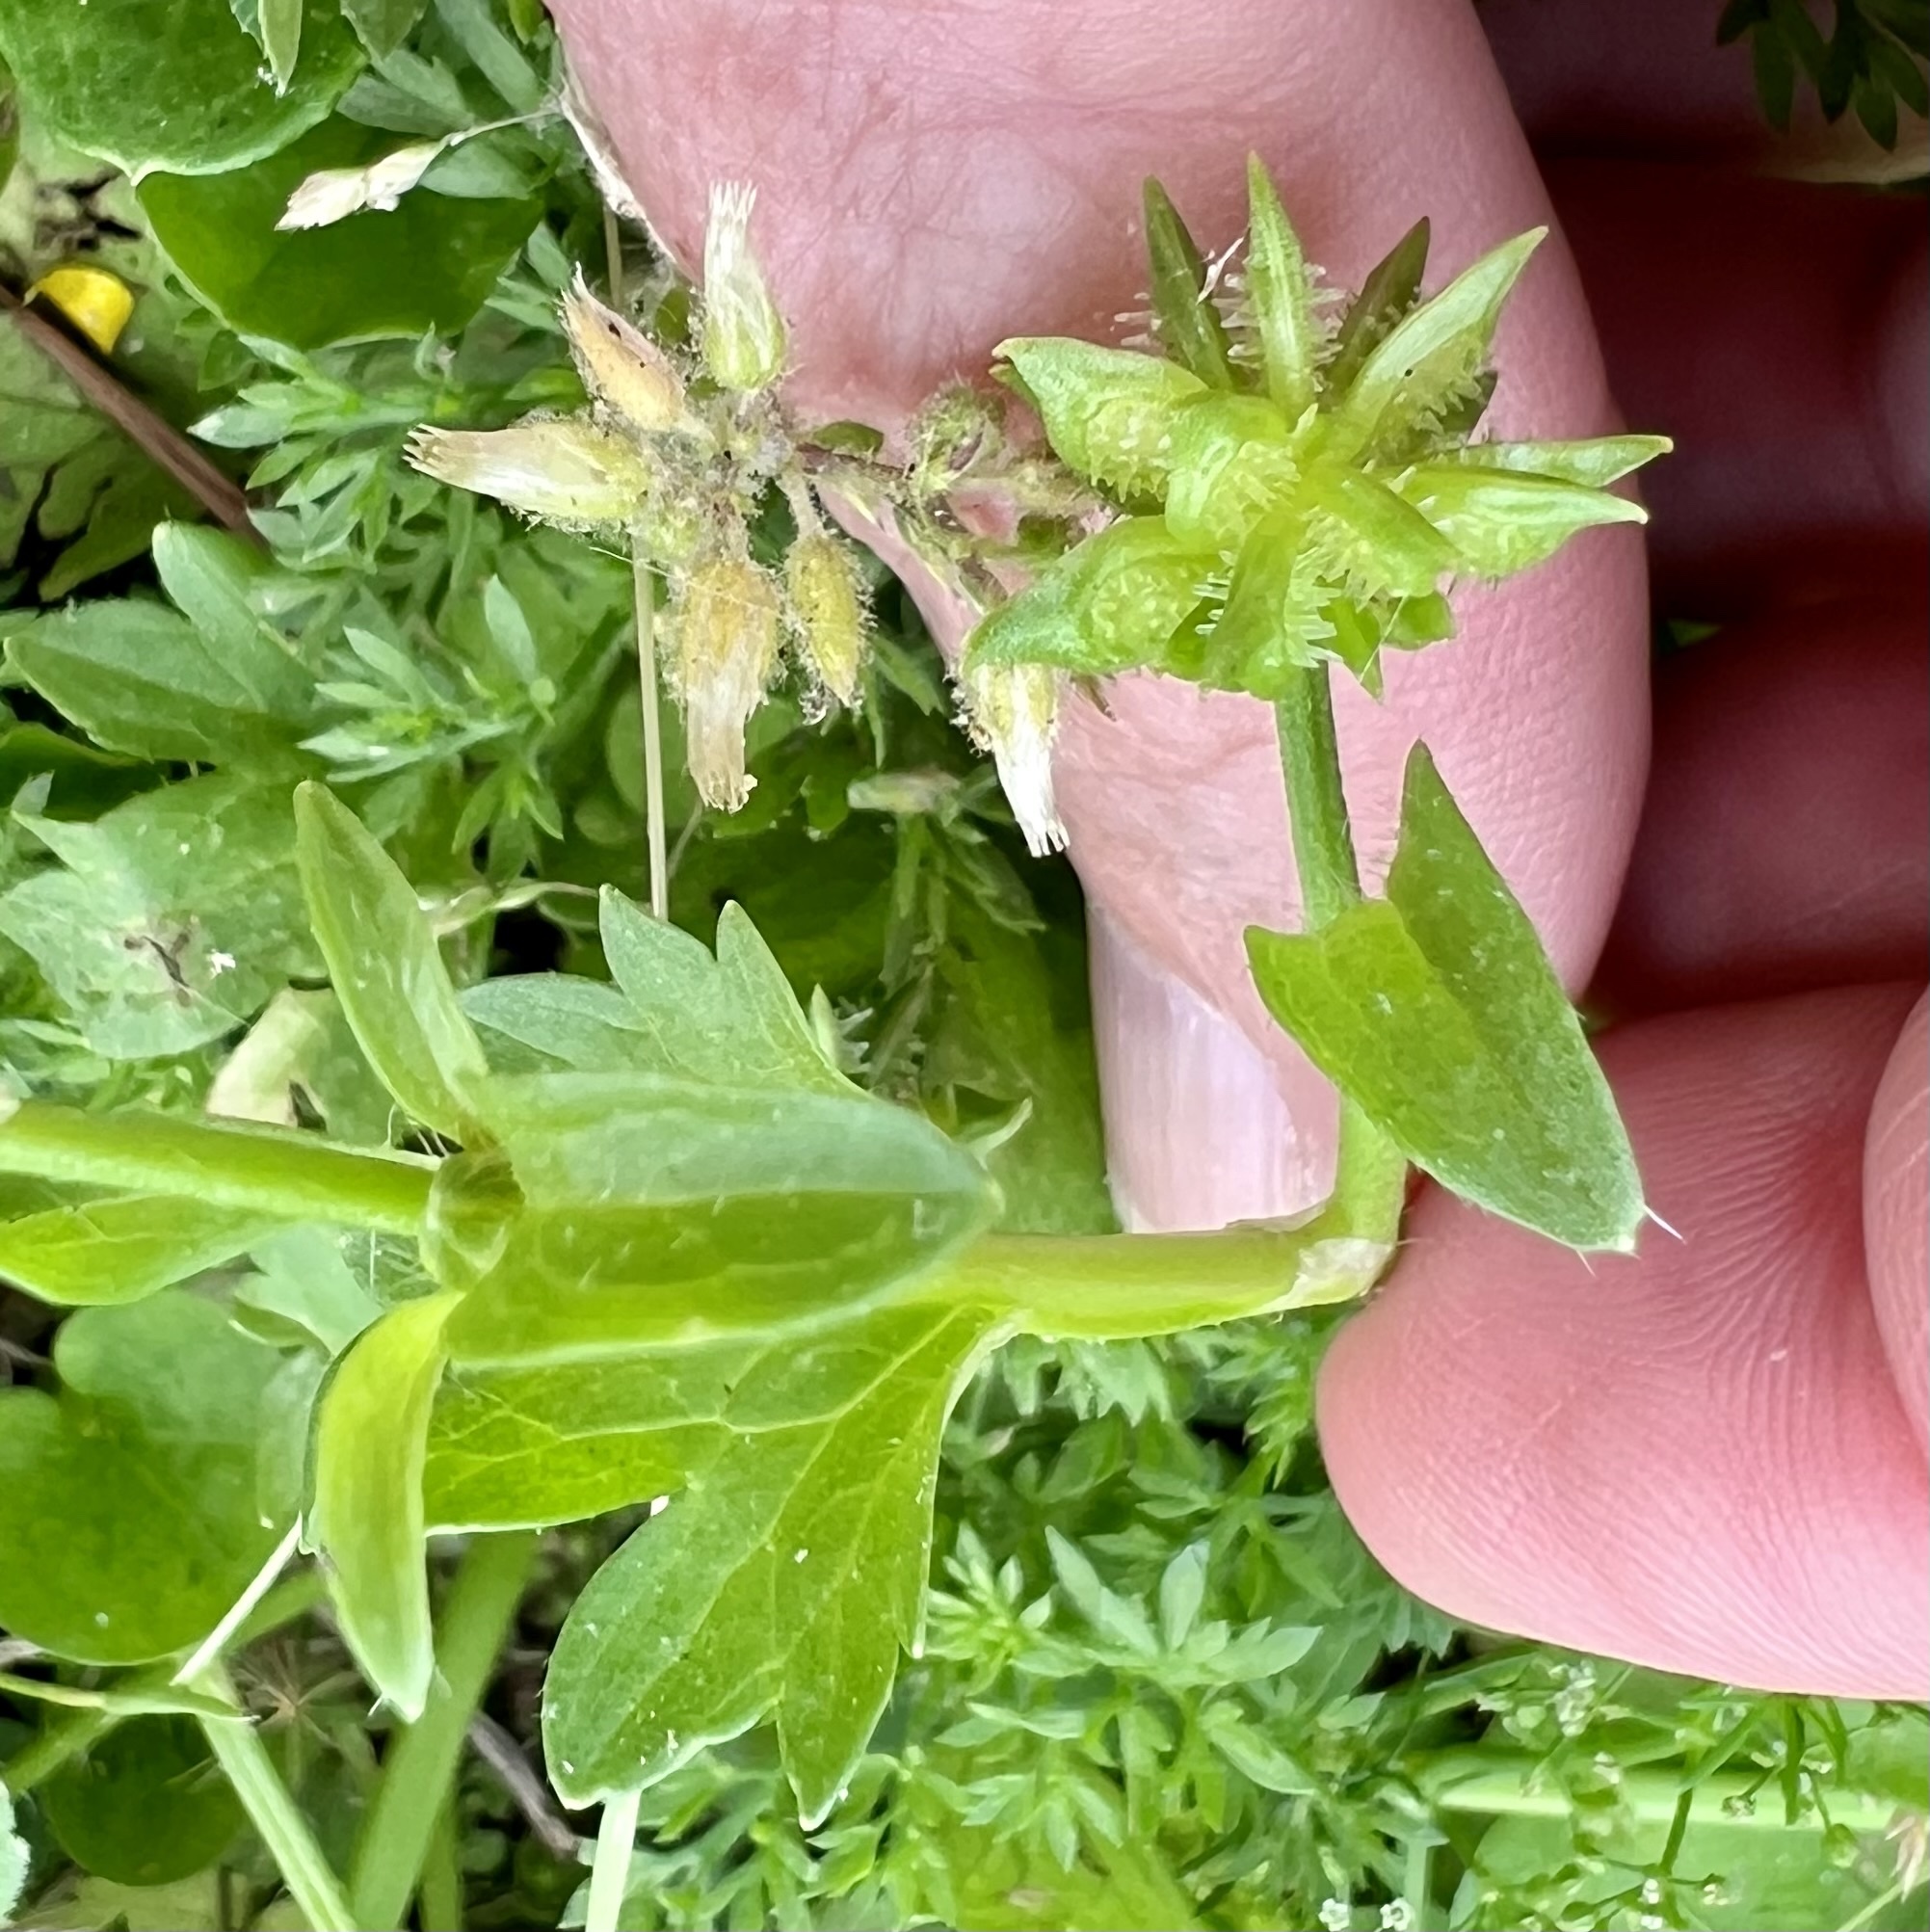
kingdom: Plantae
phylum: Tracheophyta
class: Magnoliopsida
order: Ranunculales
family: Ranunculaceae
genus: Ranunculus
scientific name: Ranunculus muricatus
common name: Rough-fruited buttercup
